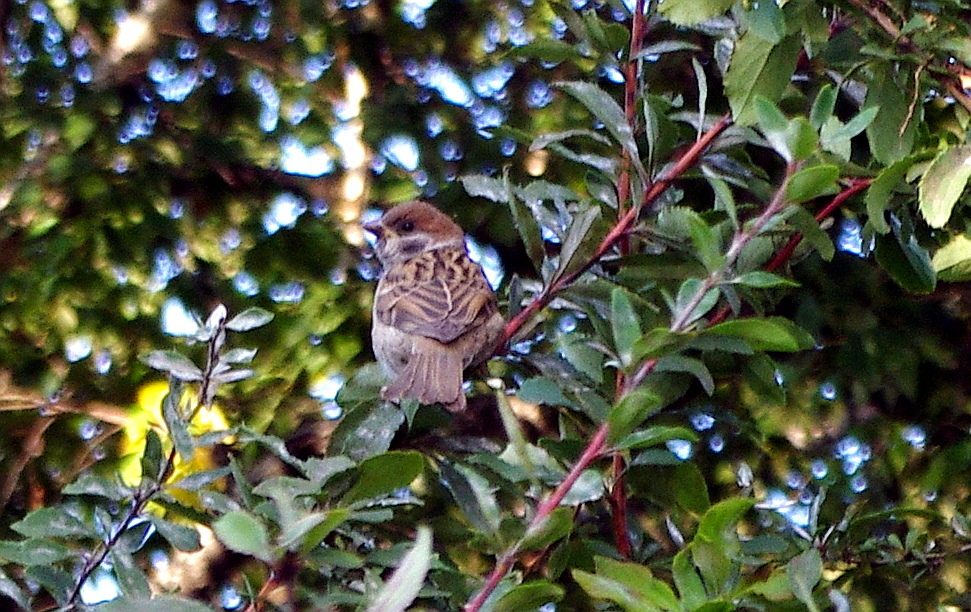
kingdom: Animalia
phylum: Chordata
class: Aves
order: Passeriformes
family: Passeridae
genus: Passer
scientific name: Passer montanus
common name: Eurasian tree sparrow
